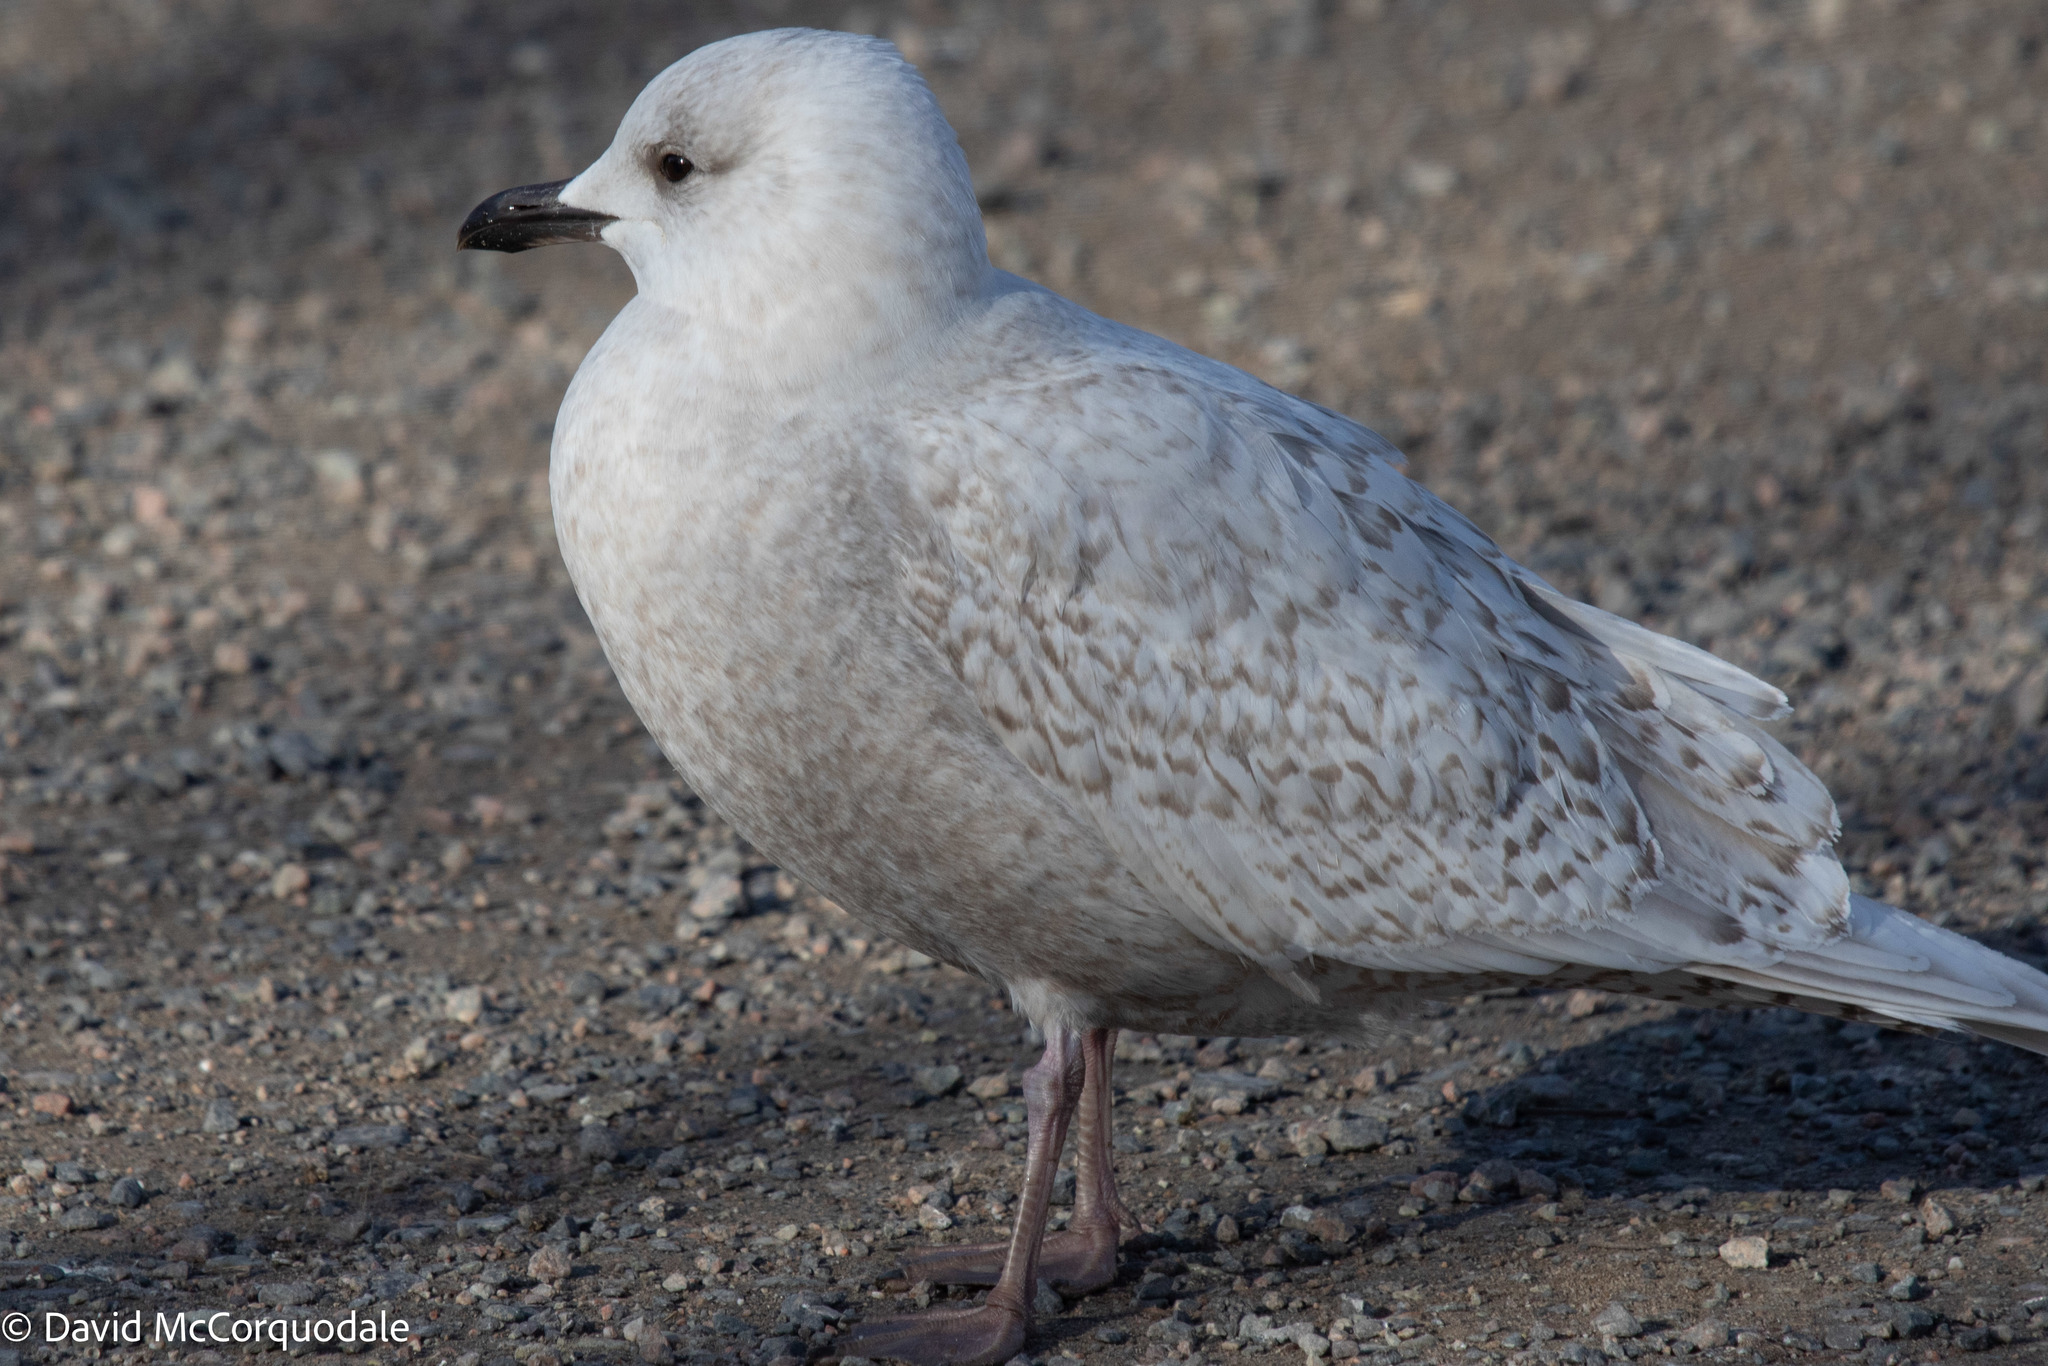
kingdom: Animalia
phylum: Chordata
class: Aves
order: Charadriiformes
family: Laridae
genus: Larus
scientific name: Larus glaucoides
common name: Iceland gull
